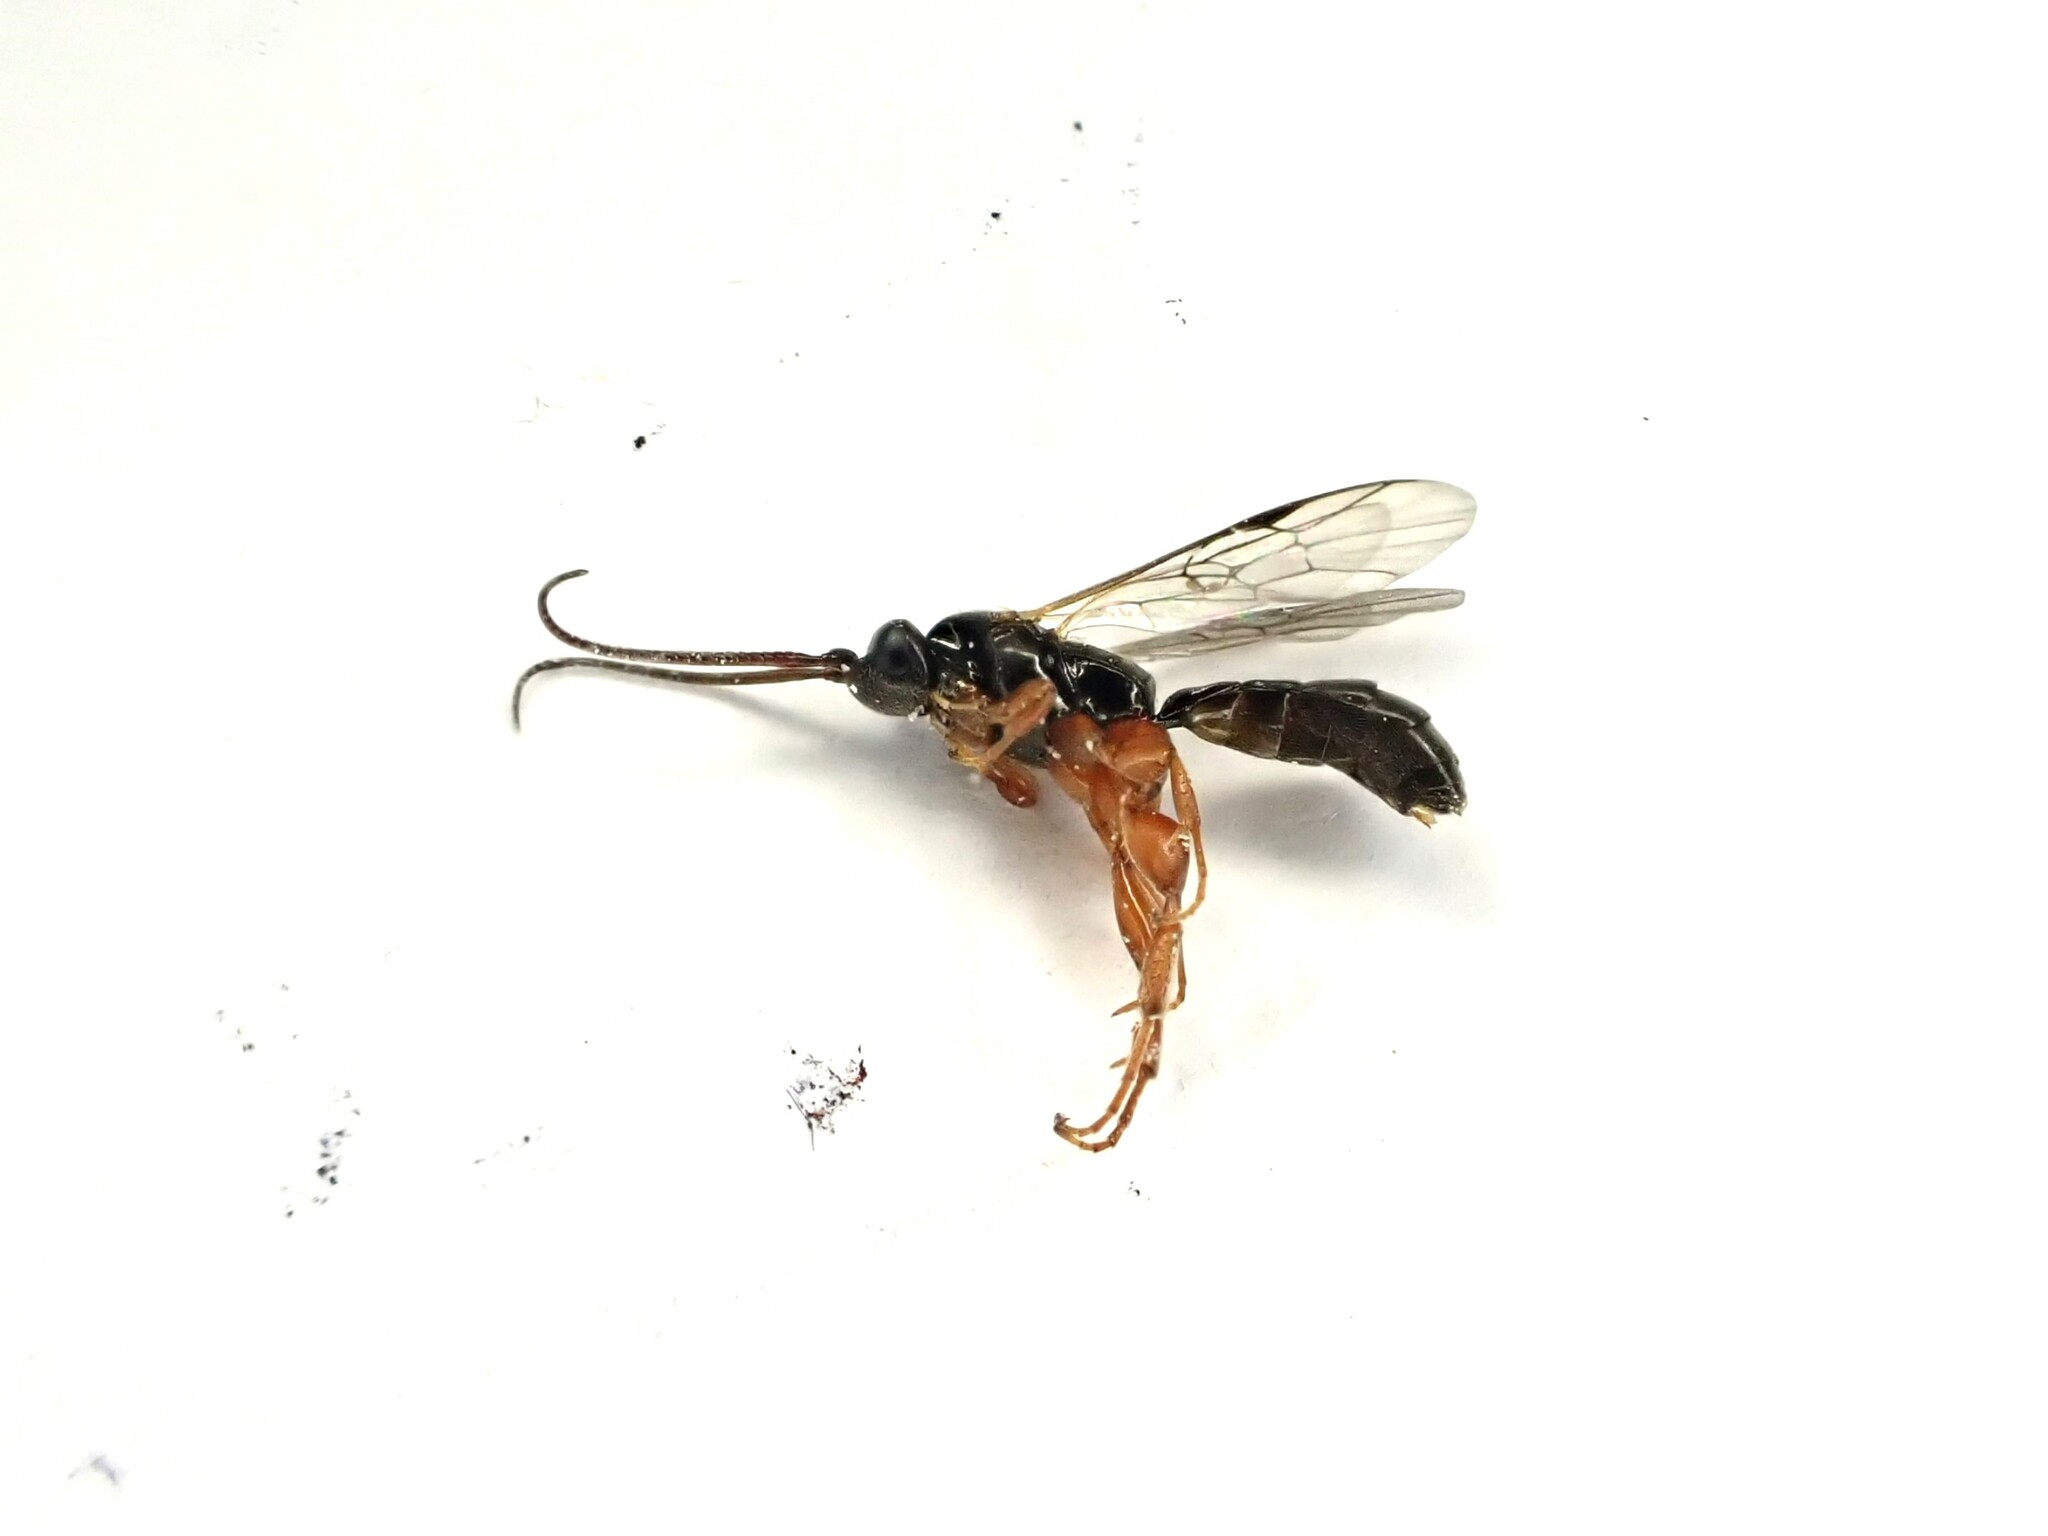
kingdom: Animalia
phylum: Arthropoda
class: Insecta
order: Hymenoptera
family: Ichneumonidae
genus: Hypsicera
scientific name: Hypsicera femoralis
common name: Ichneumonid wasp
